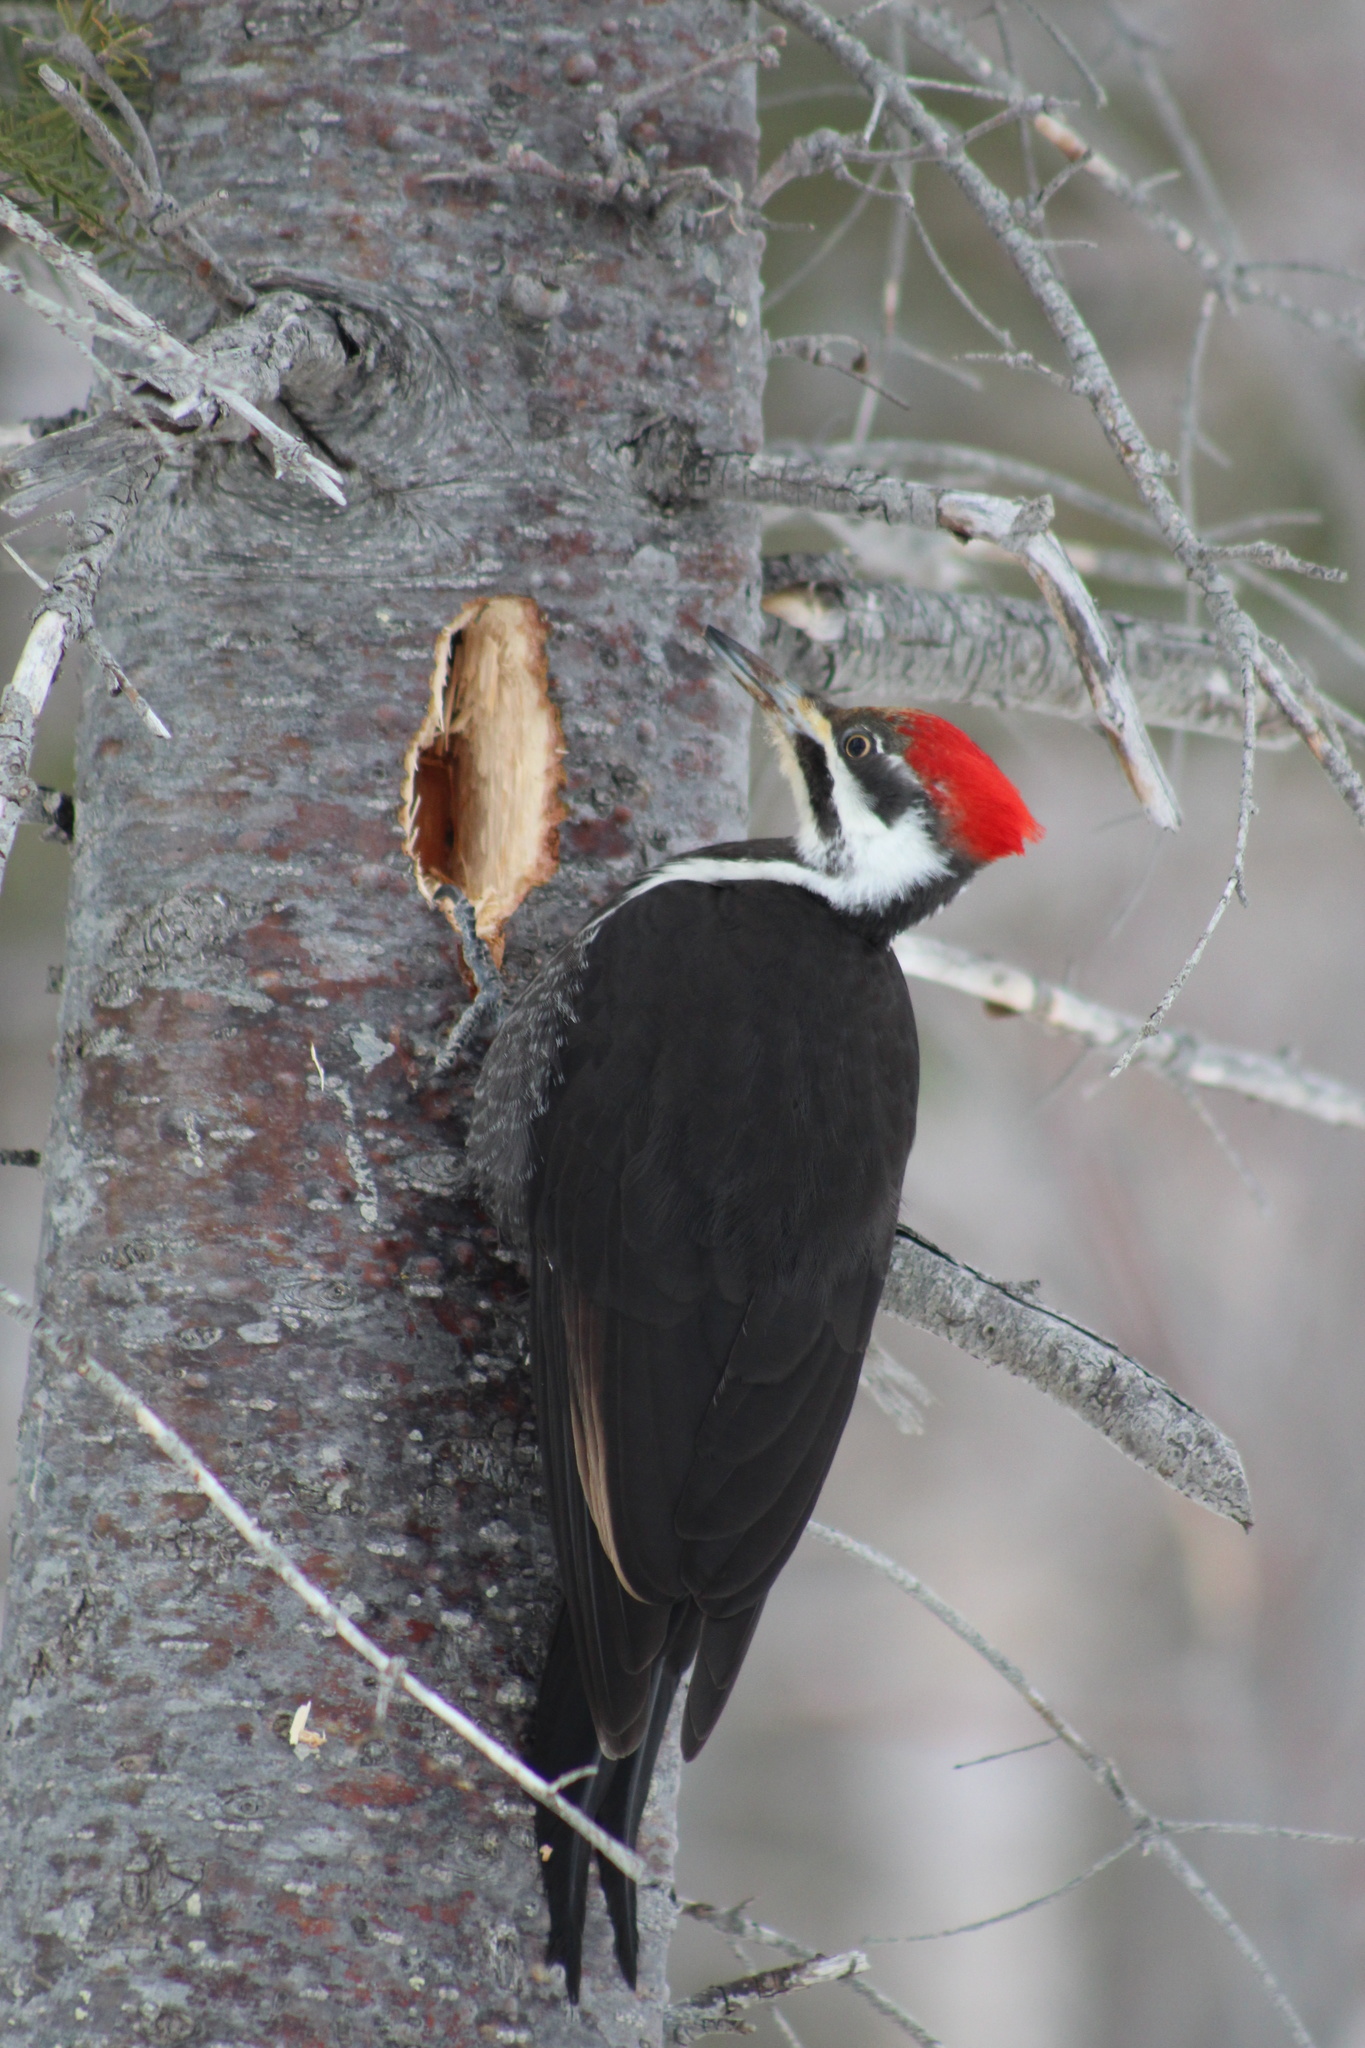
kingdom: Animalia
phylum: Chordata
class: Aves
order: Piciformes
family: Picidae
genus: Dryocopus
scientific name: Dryocopus pileatus
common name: Pileated woodpecker
